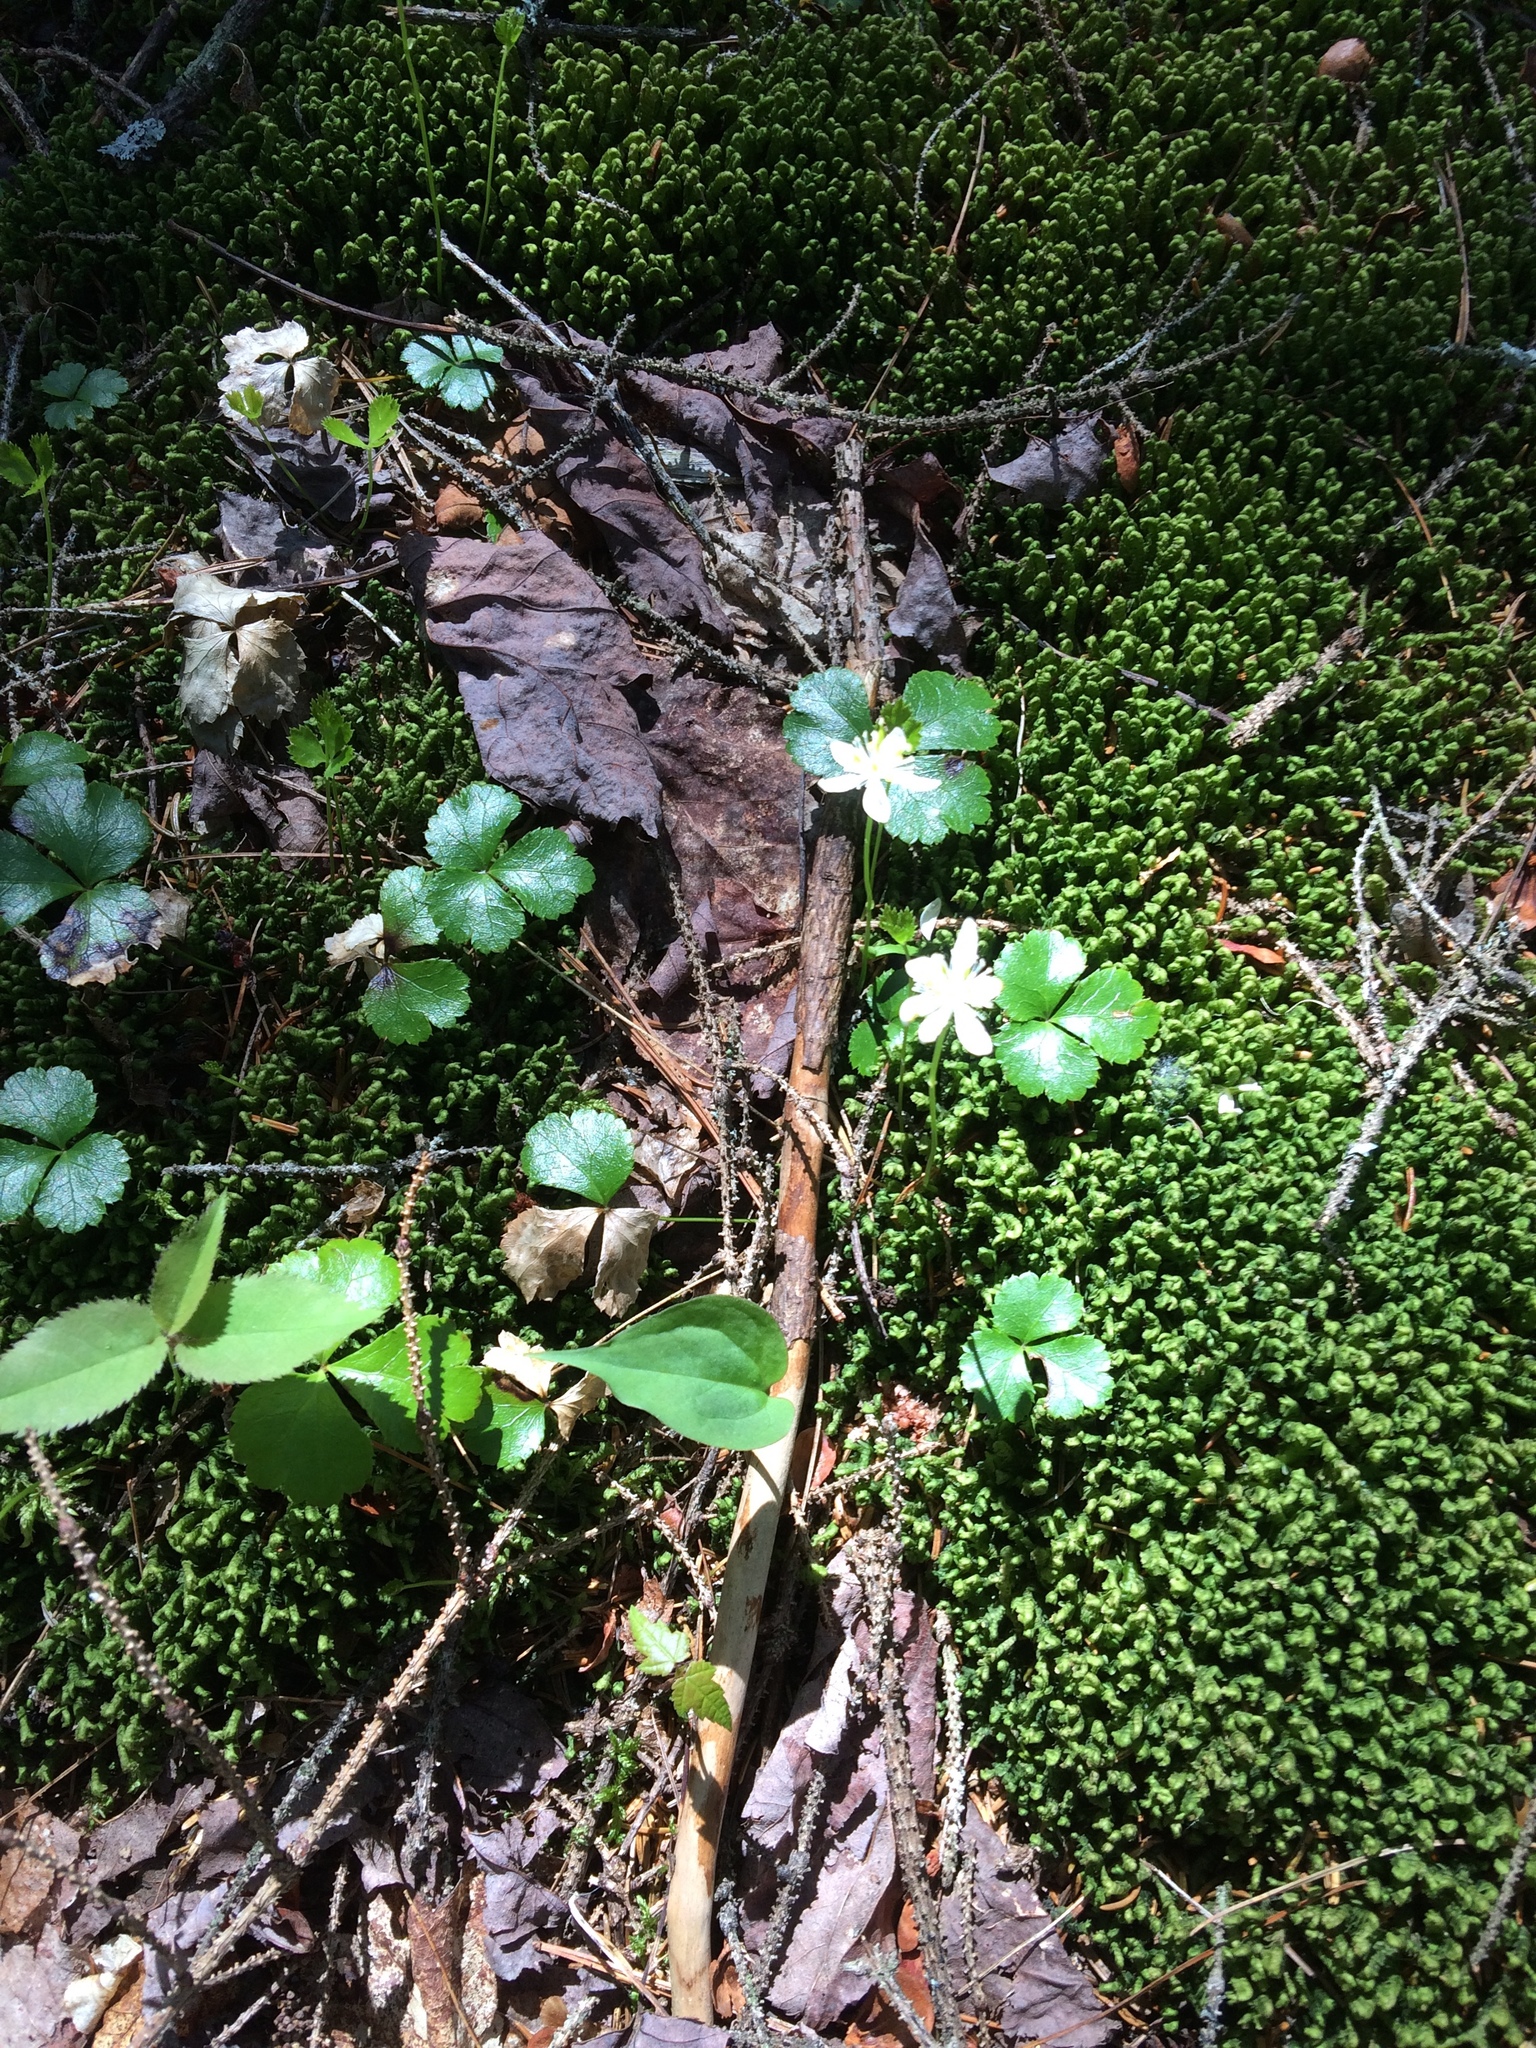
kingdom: Plantae
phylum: Marchantiophyta
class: Jungermanniopsida
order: Jungermanniales
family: Lepidoziaceae
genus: Bazzania
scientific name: Bazzania trilobata
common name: Three-lobed whipwort
